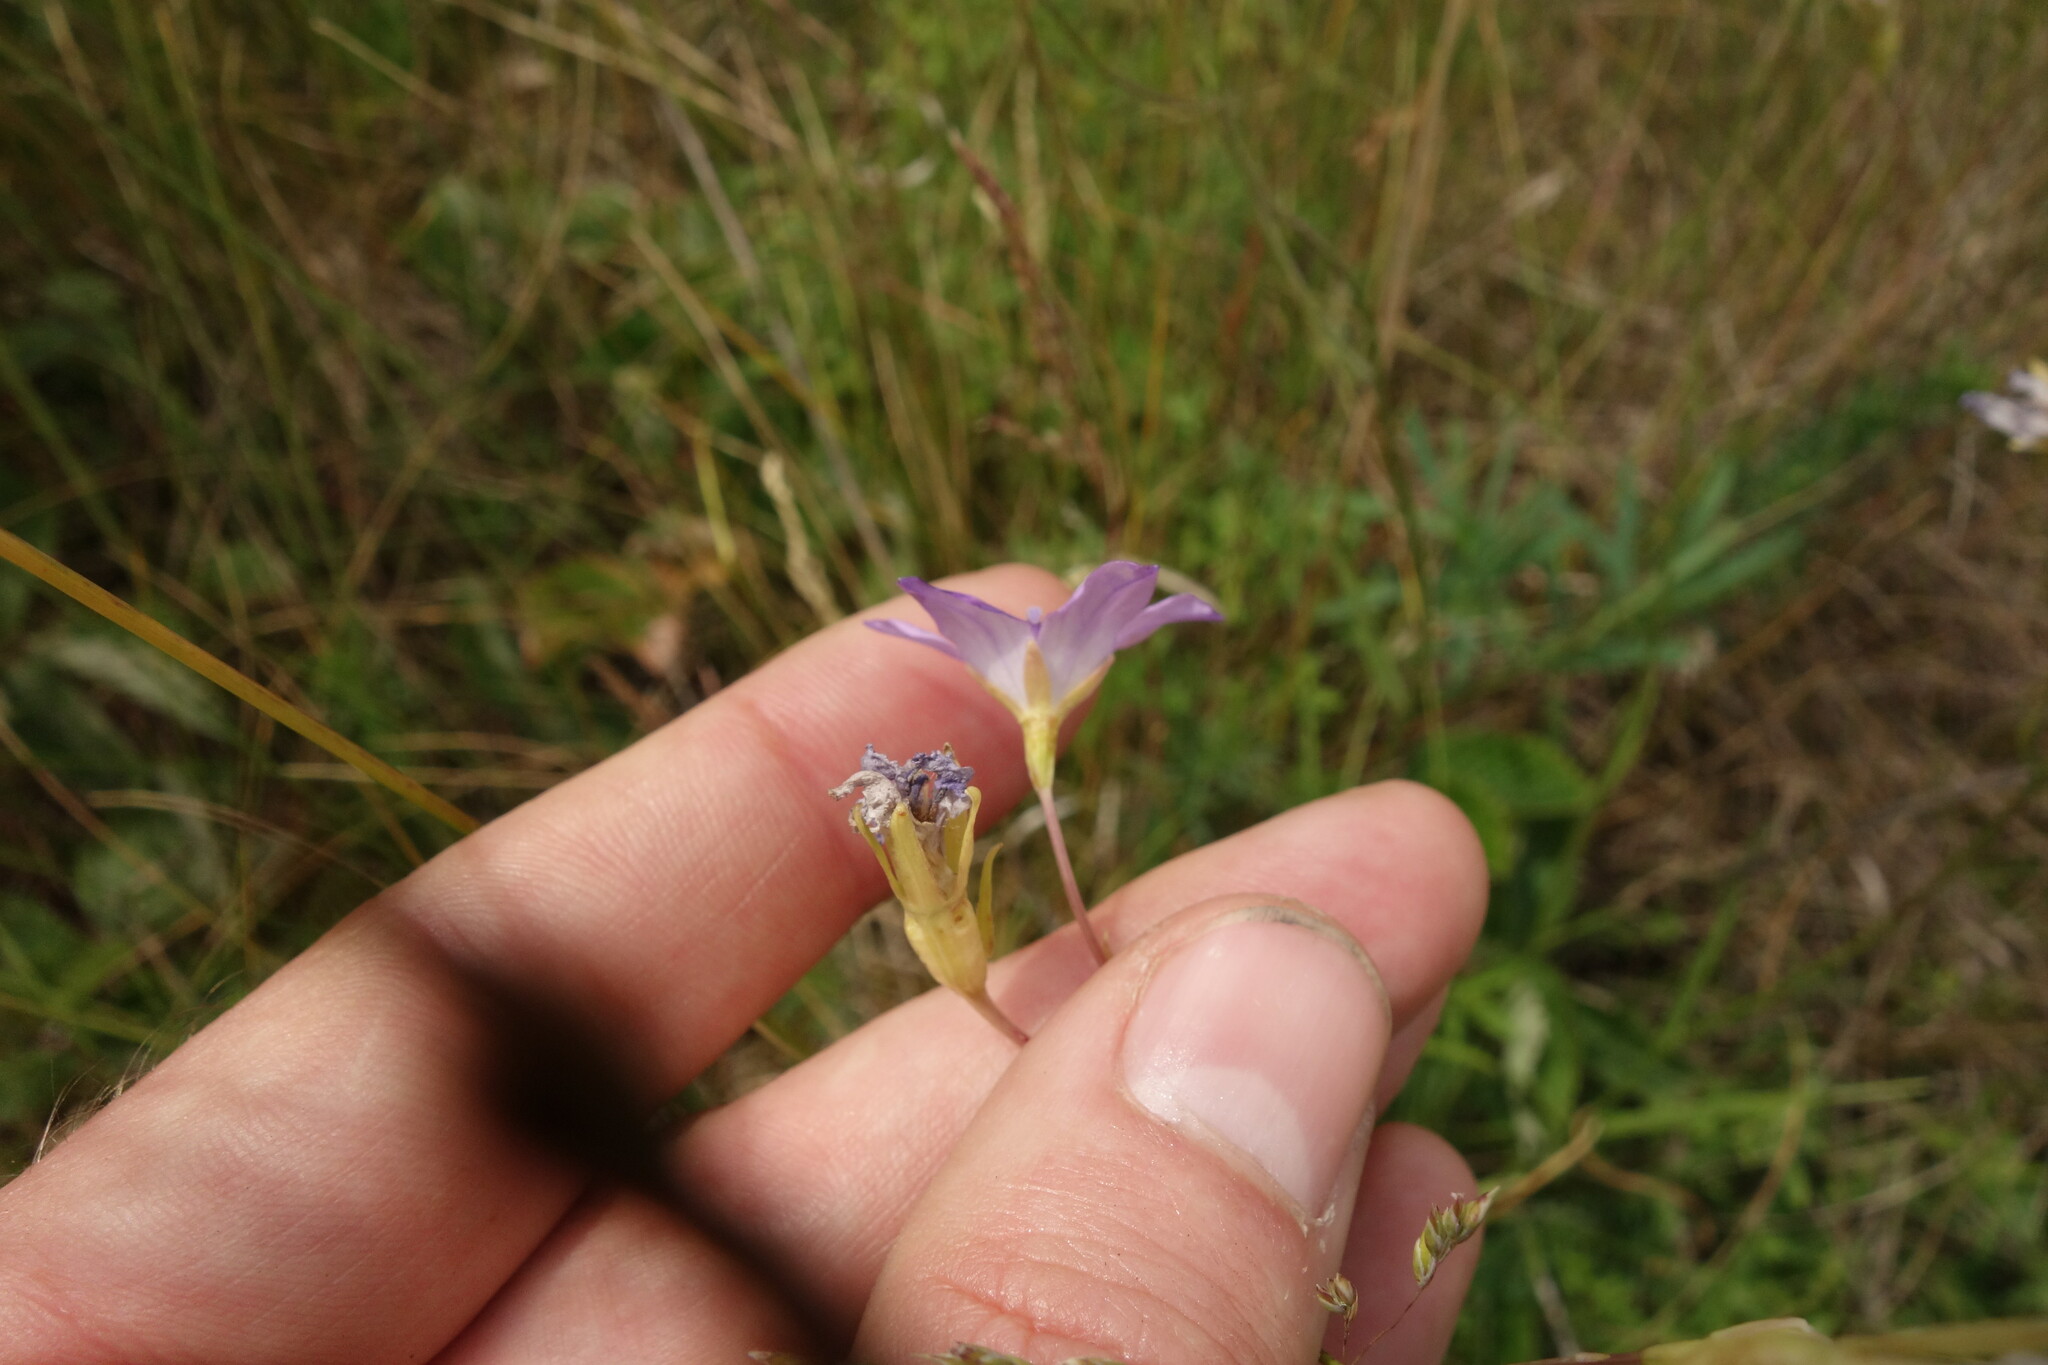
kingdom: Plantae
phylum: Tracheophyta
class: Magnoliopsida
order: Asterales
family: Campanulaceae
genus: Campanula
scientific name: Campanula stevenii
